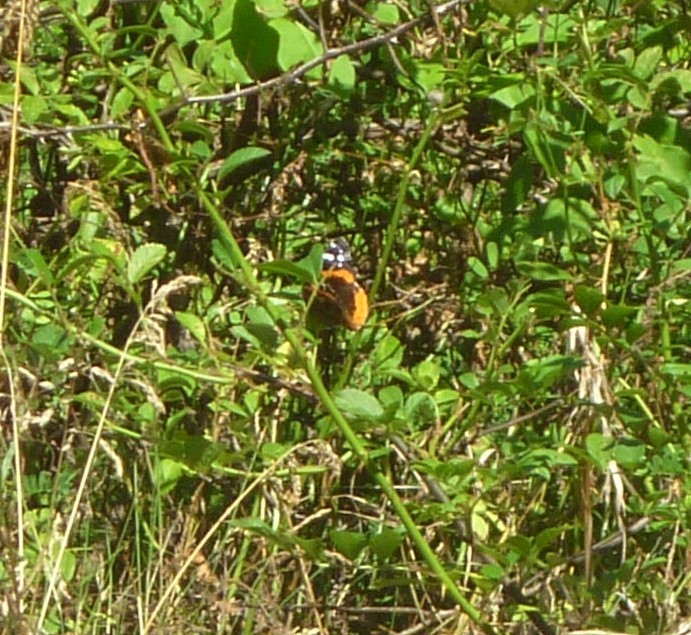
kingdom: Animalia
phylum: Arthropoda
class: Insecta
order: Lepidoptera
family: Nymphalidae
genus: Vanessa
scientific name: Vanessa atalanta
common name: Red admiral
